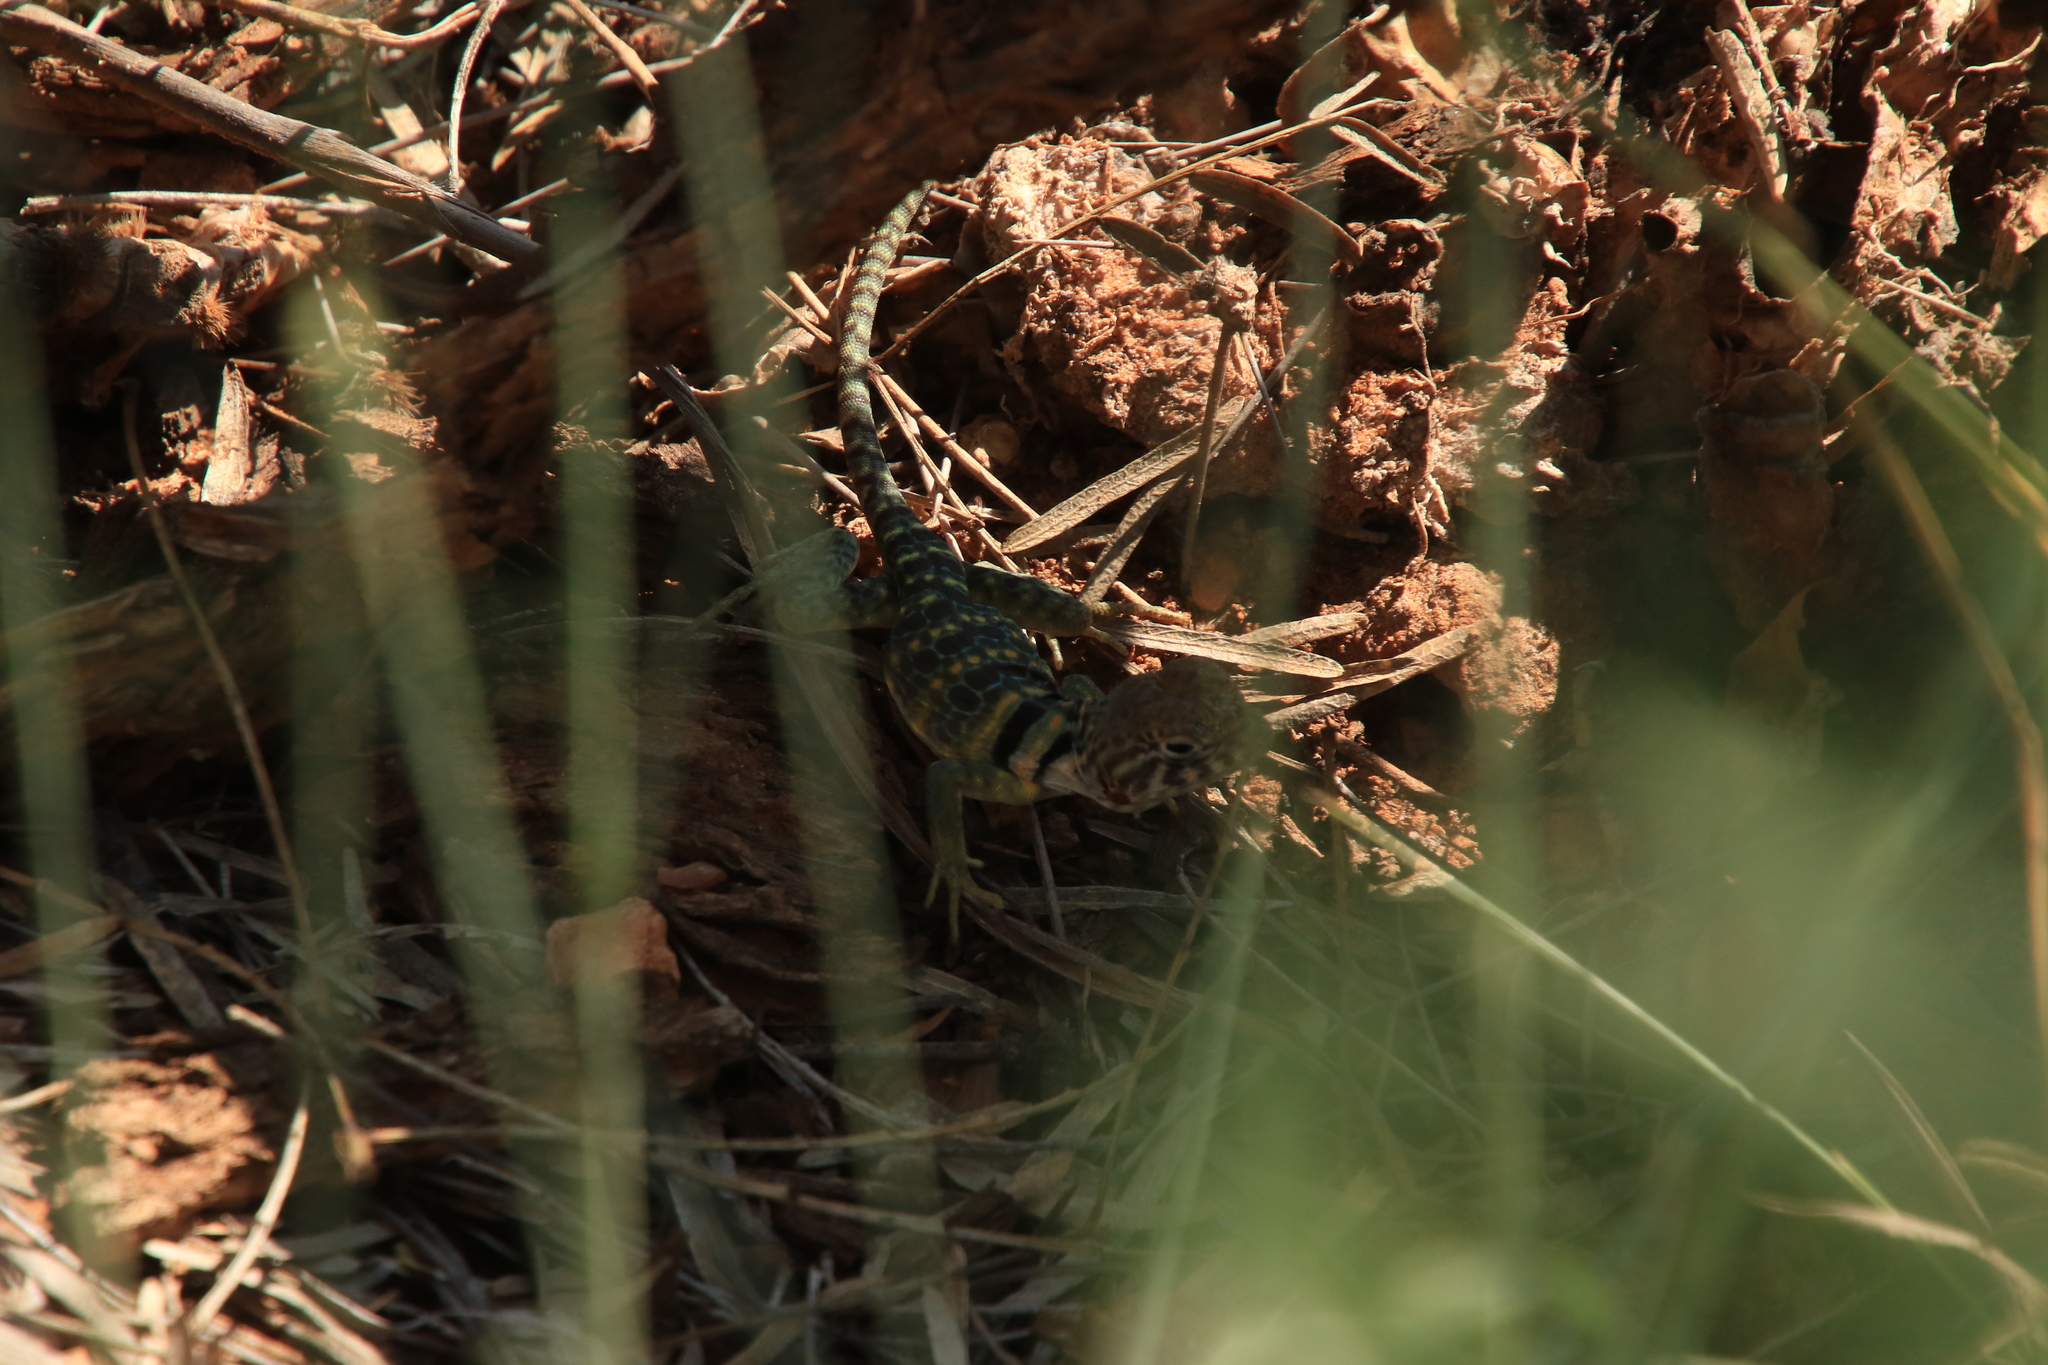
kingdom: Animalia
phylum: Chordata
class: Squamata
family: Crotaphytidae
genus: Crotaphytus
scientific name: Crotaphytus collaris
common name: Collared lizard
